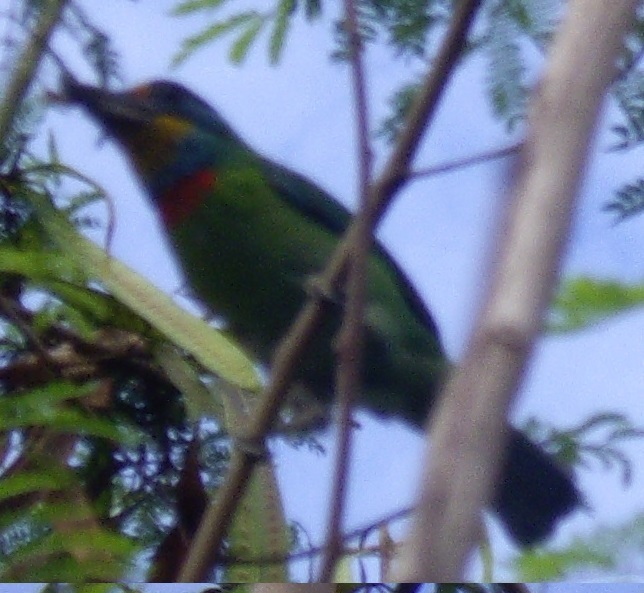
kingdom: Animalia
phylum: Chordata
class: Aves
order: Piciformes
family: Megalaimidae
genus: Psilopogon
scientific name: Psilopogon nuchalis
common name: Taiwan barbet
